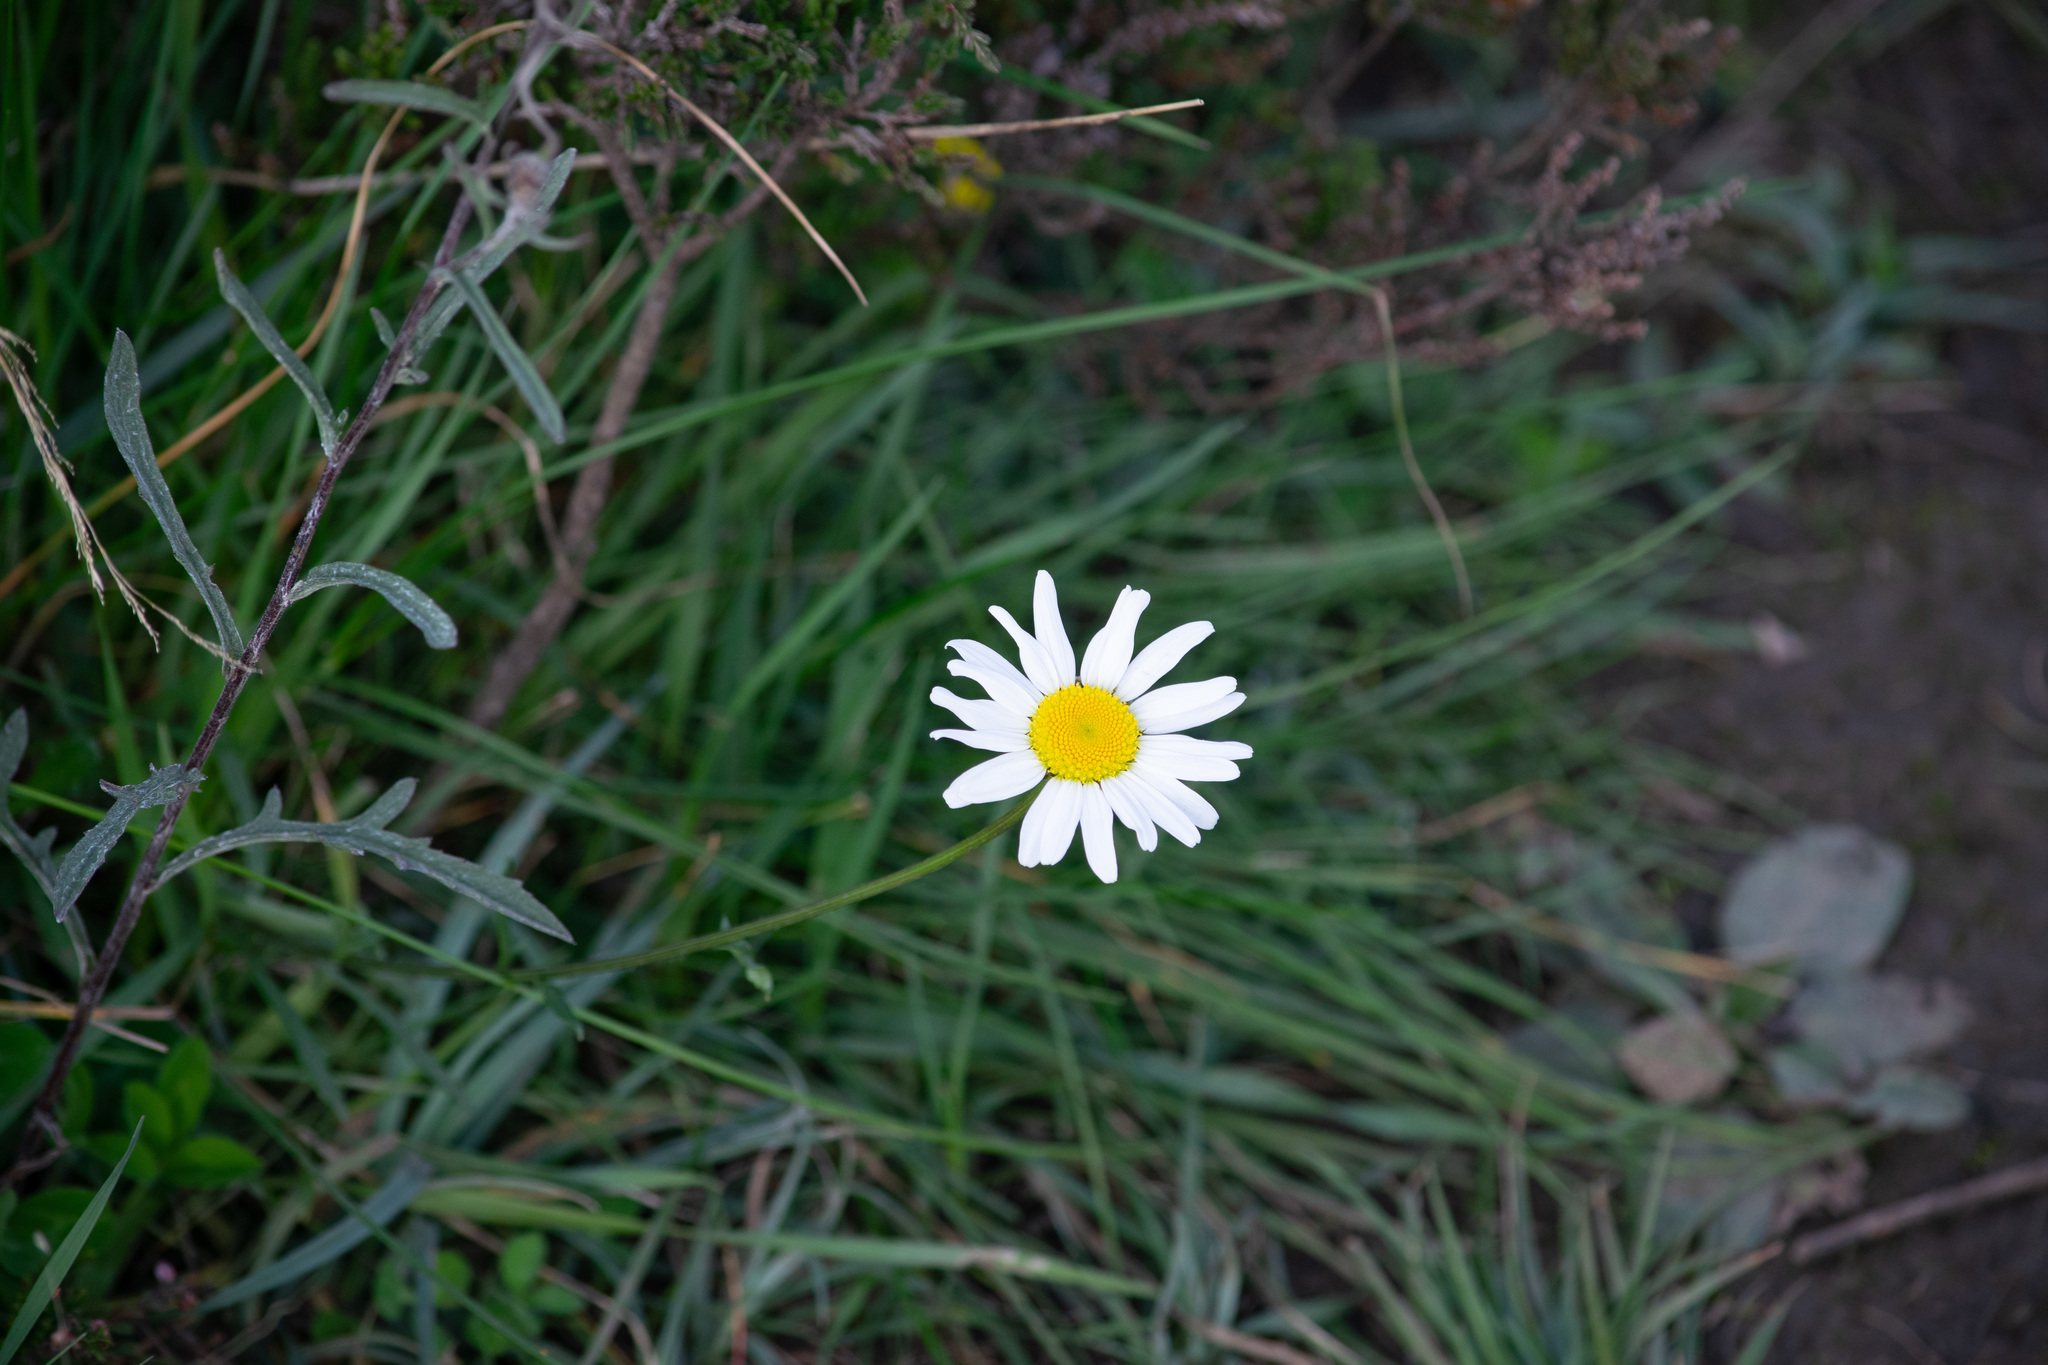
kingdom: Plantae
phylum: Tracheophyta
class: Magnoliopsida
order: Asterales
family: Asteraceae
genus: Leucanthemum
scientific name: Leucanthemum vulgare
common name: Oxeye daisy
